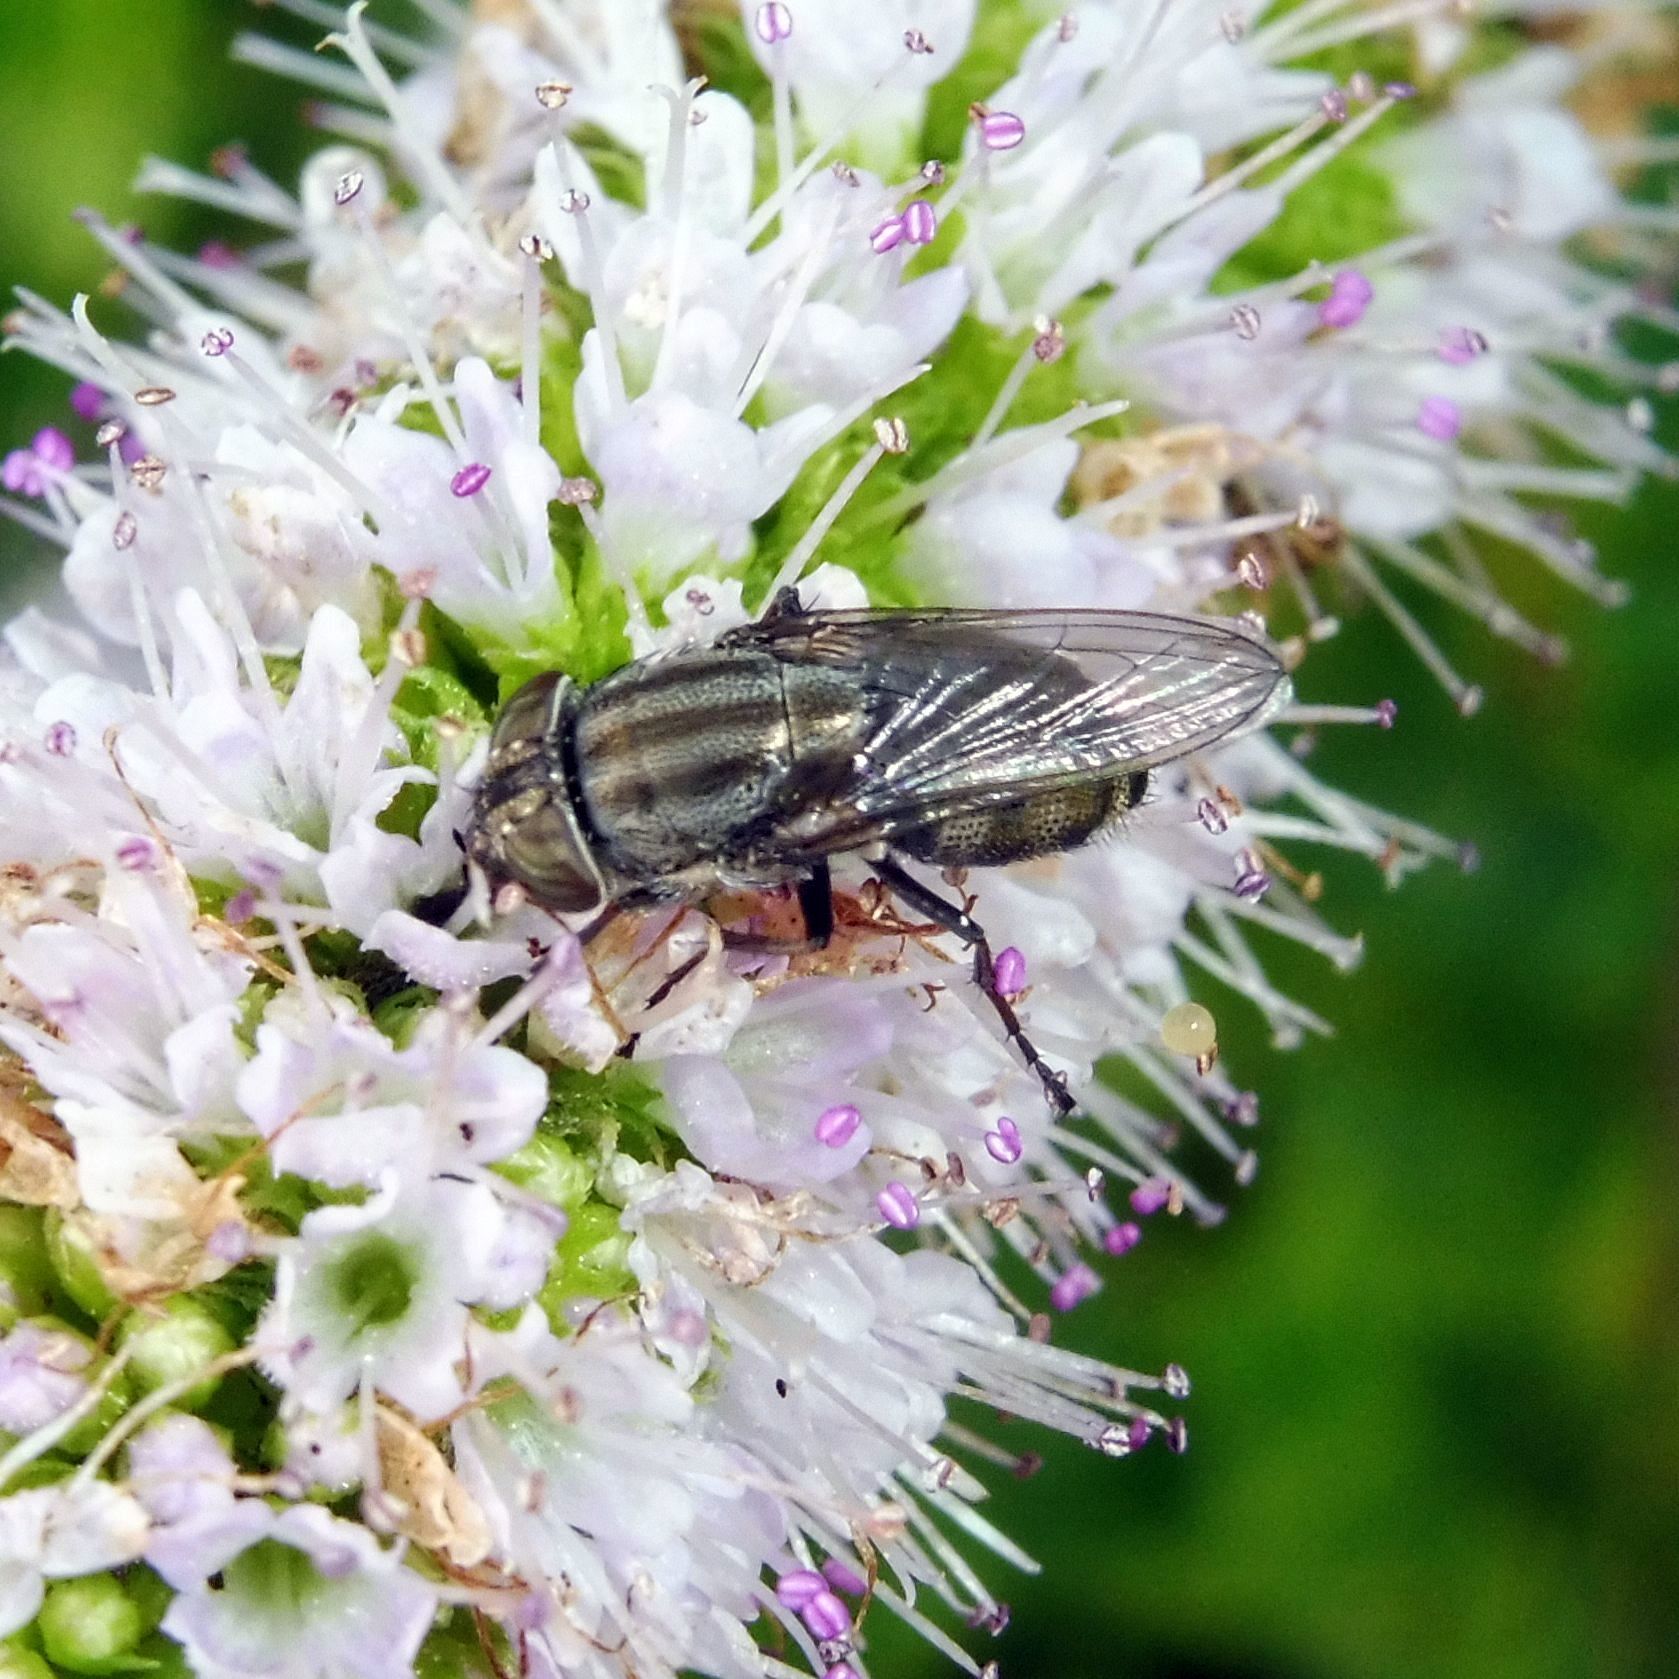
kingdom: Animalia
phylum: Arthropoda
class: Insecta
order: Diptera
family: Calliphoridae
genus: Stomorhina
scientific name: Stomorhina lunata
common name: Locust blowfly
